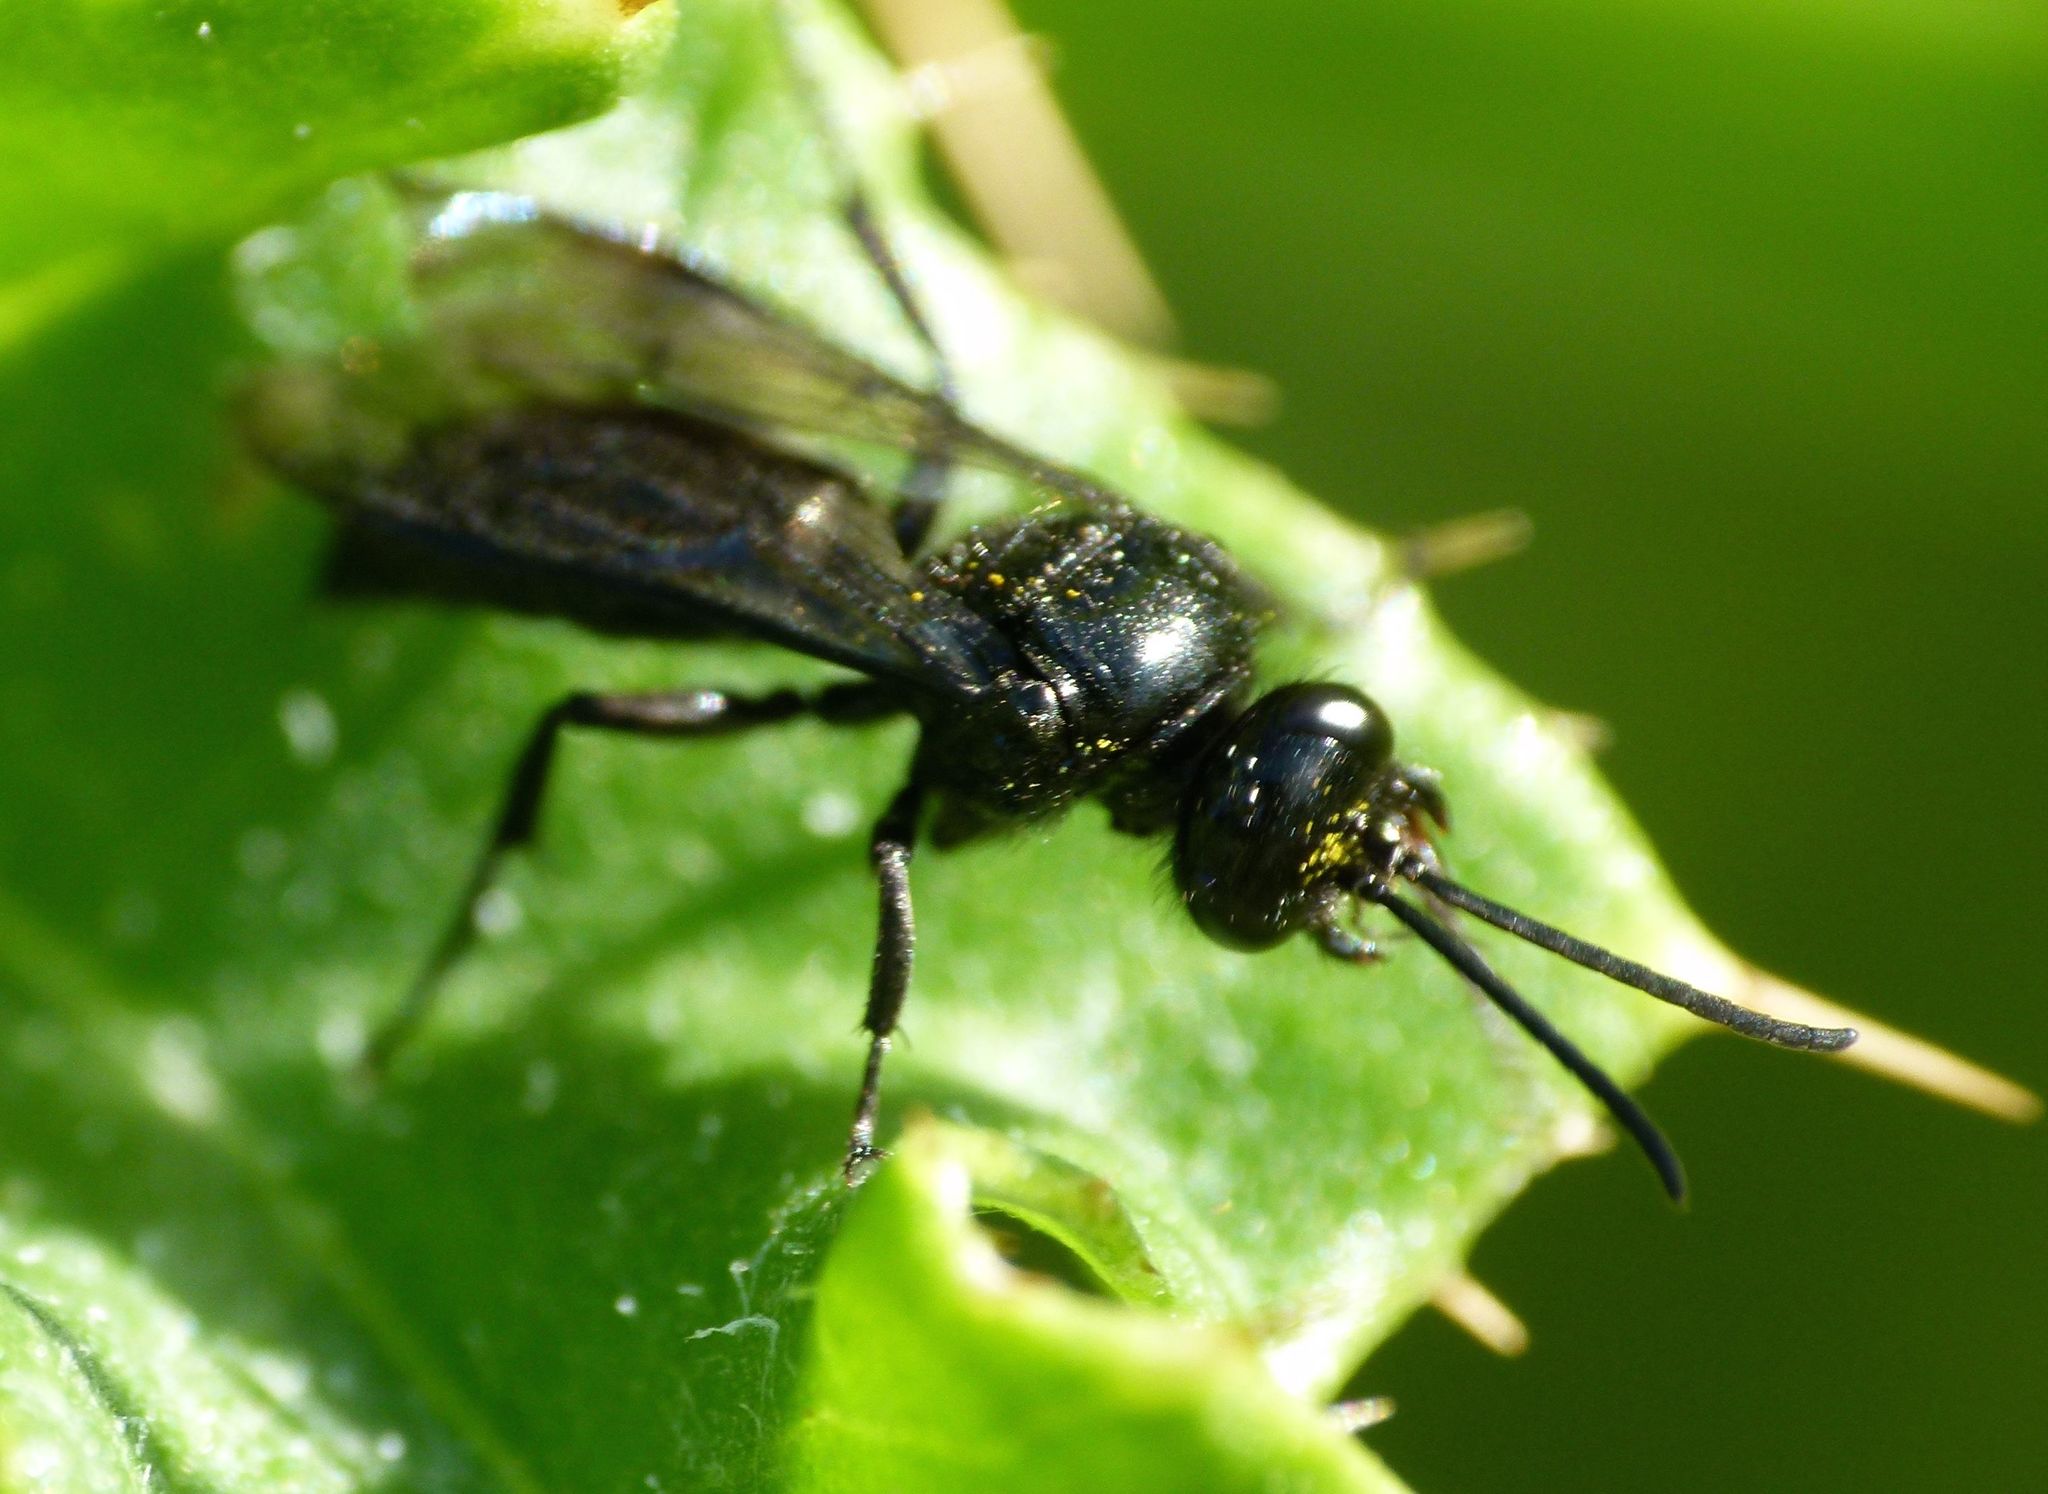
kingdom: Animalia
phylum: Arthropoda
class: Insecta
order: Hymenoptera
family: Crabronidae
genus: Argogorytes
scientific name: Argogorytes carbonarius
